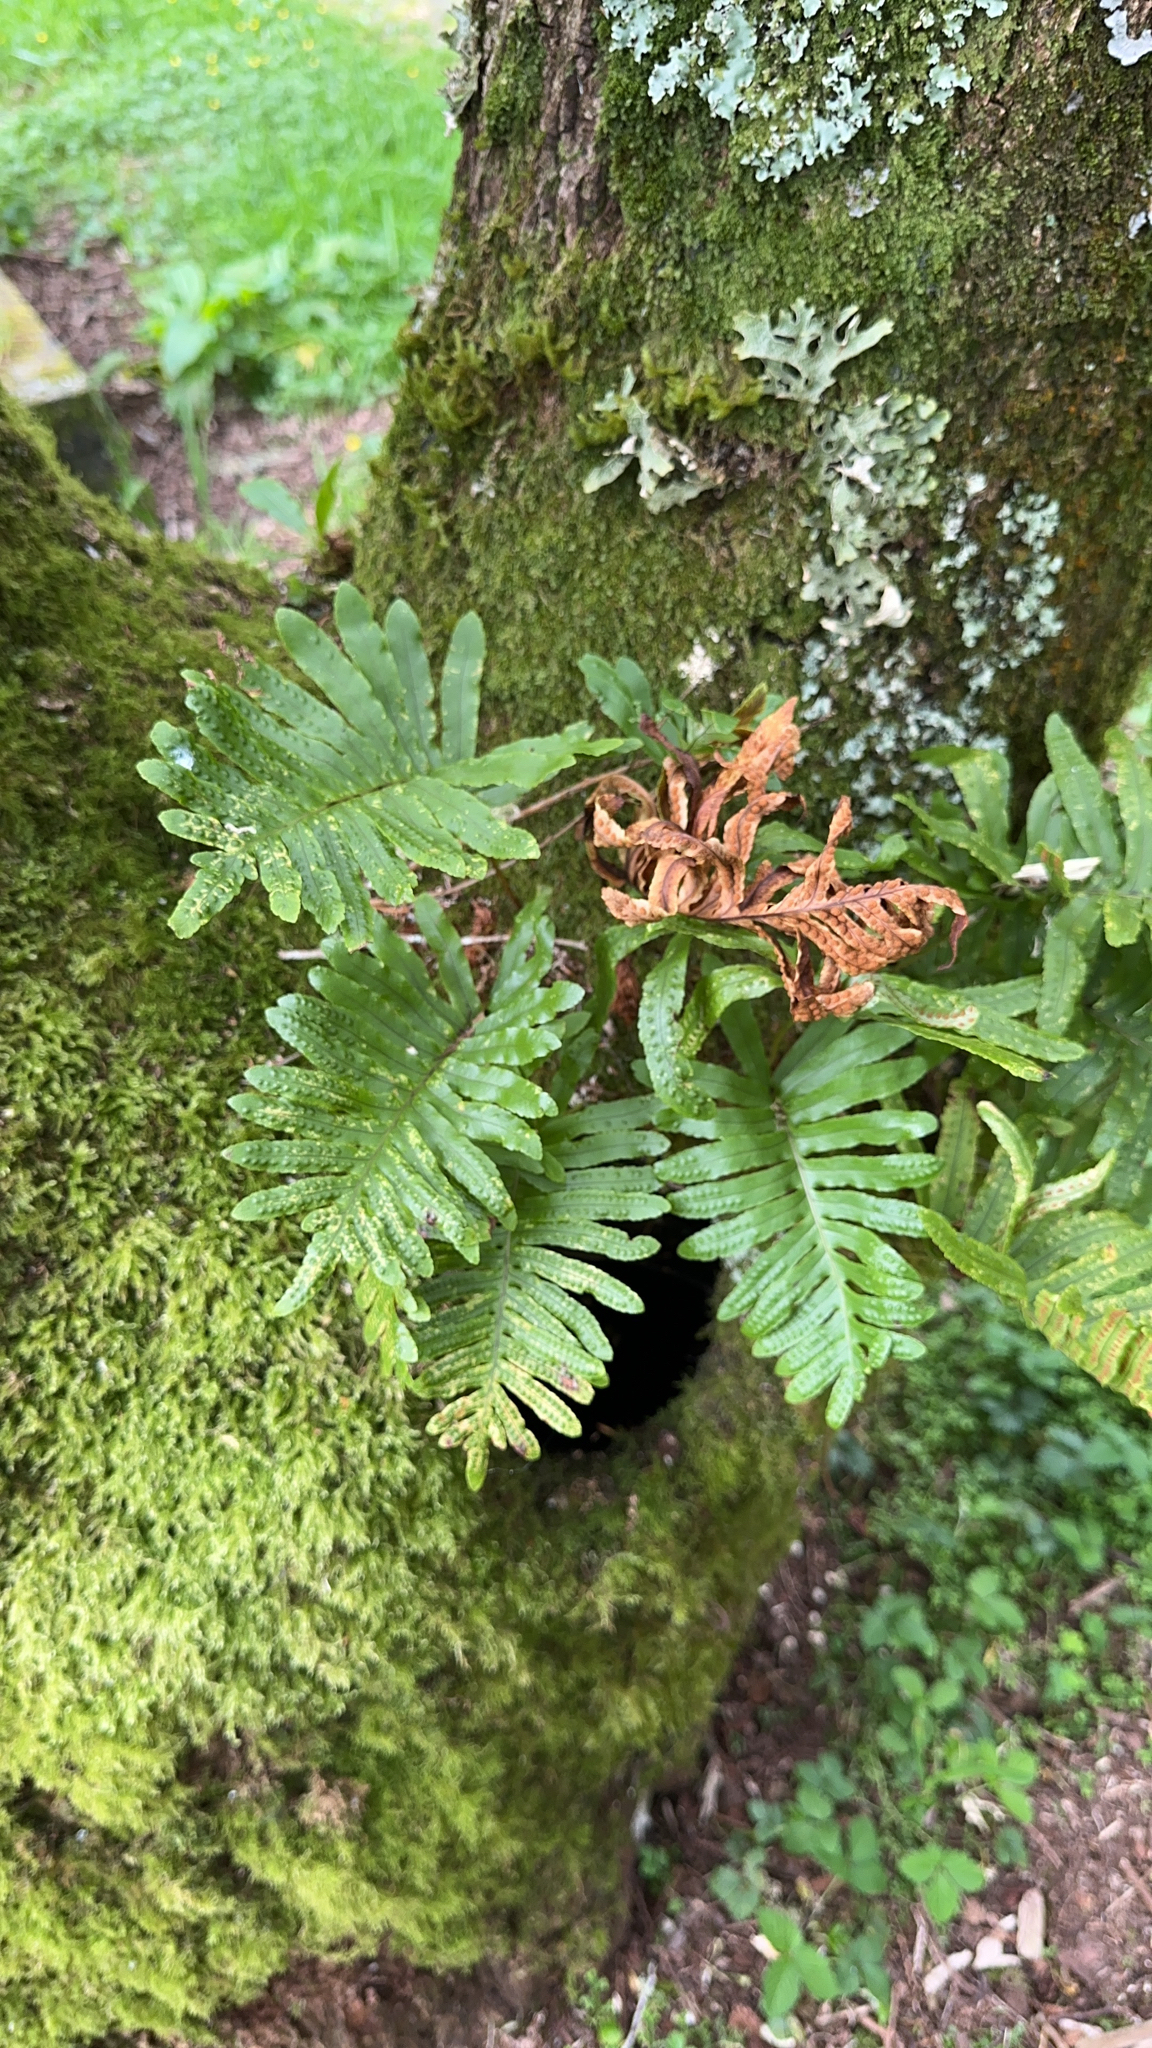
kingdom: Plantae
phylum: Tracheophyta
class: Polypodiopsida
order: Polypodiales
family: Polypodiaceae
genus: Polypodium
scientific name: Polypodium macaronesicum
